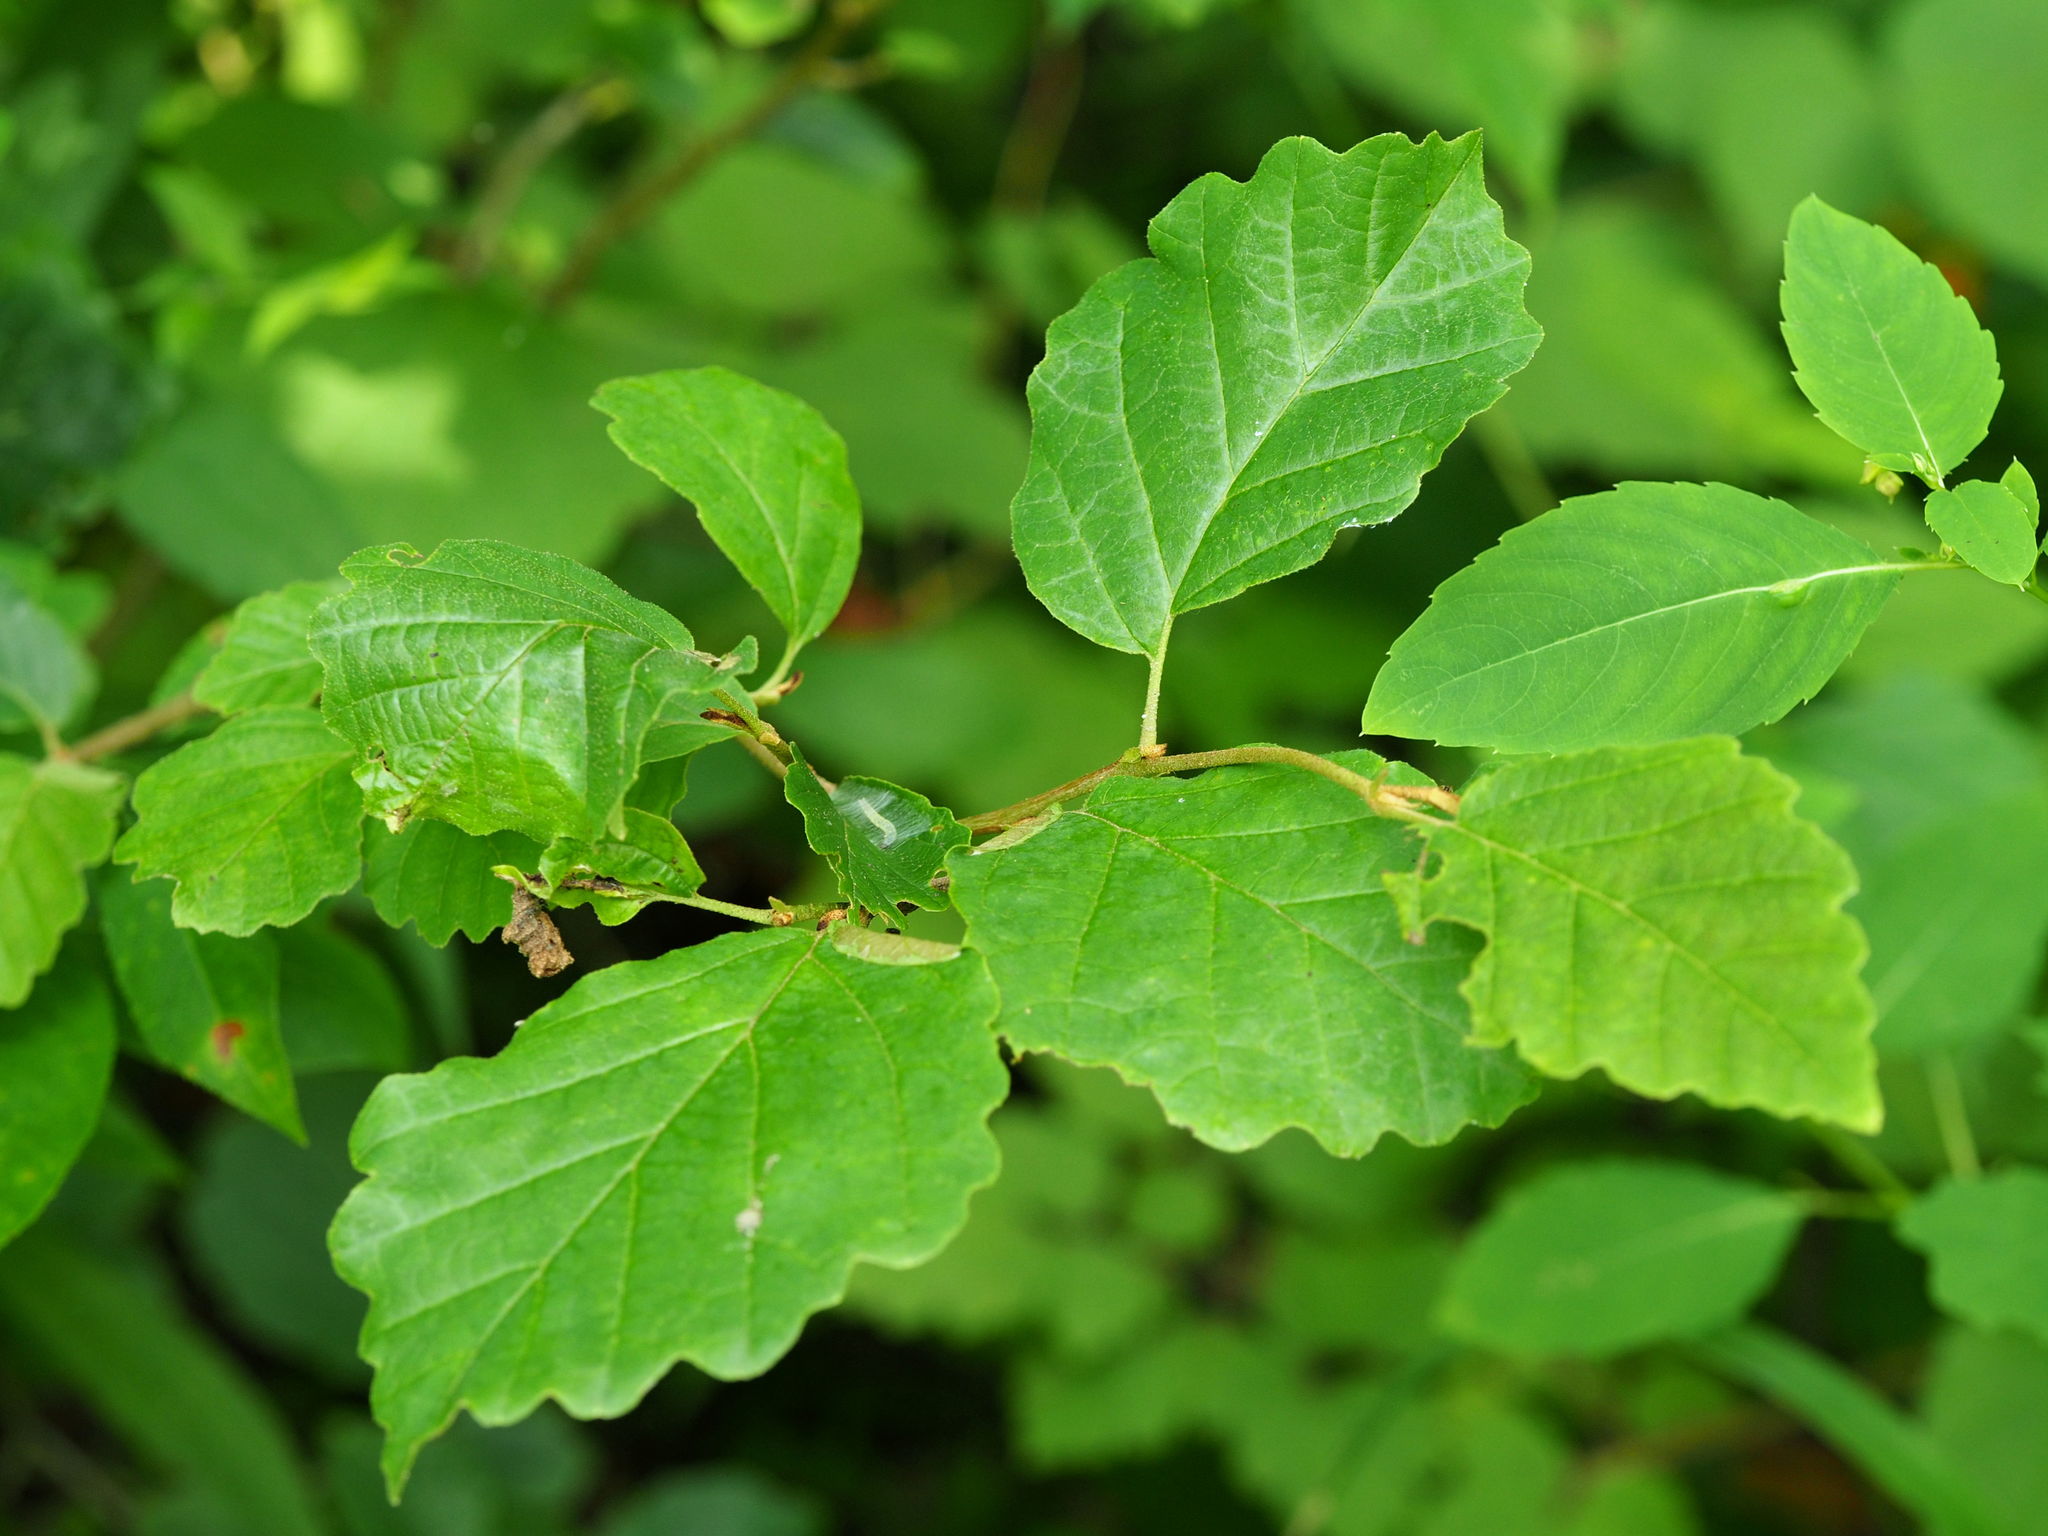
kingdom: Plantae
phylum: Tracheophyta
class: Magnoliopsida
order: Saxifragales
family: Hamamelidaceae
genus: Hamamelis
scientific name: Hamamelis virginiana
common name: Witch-hazel
